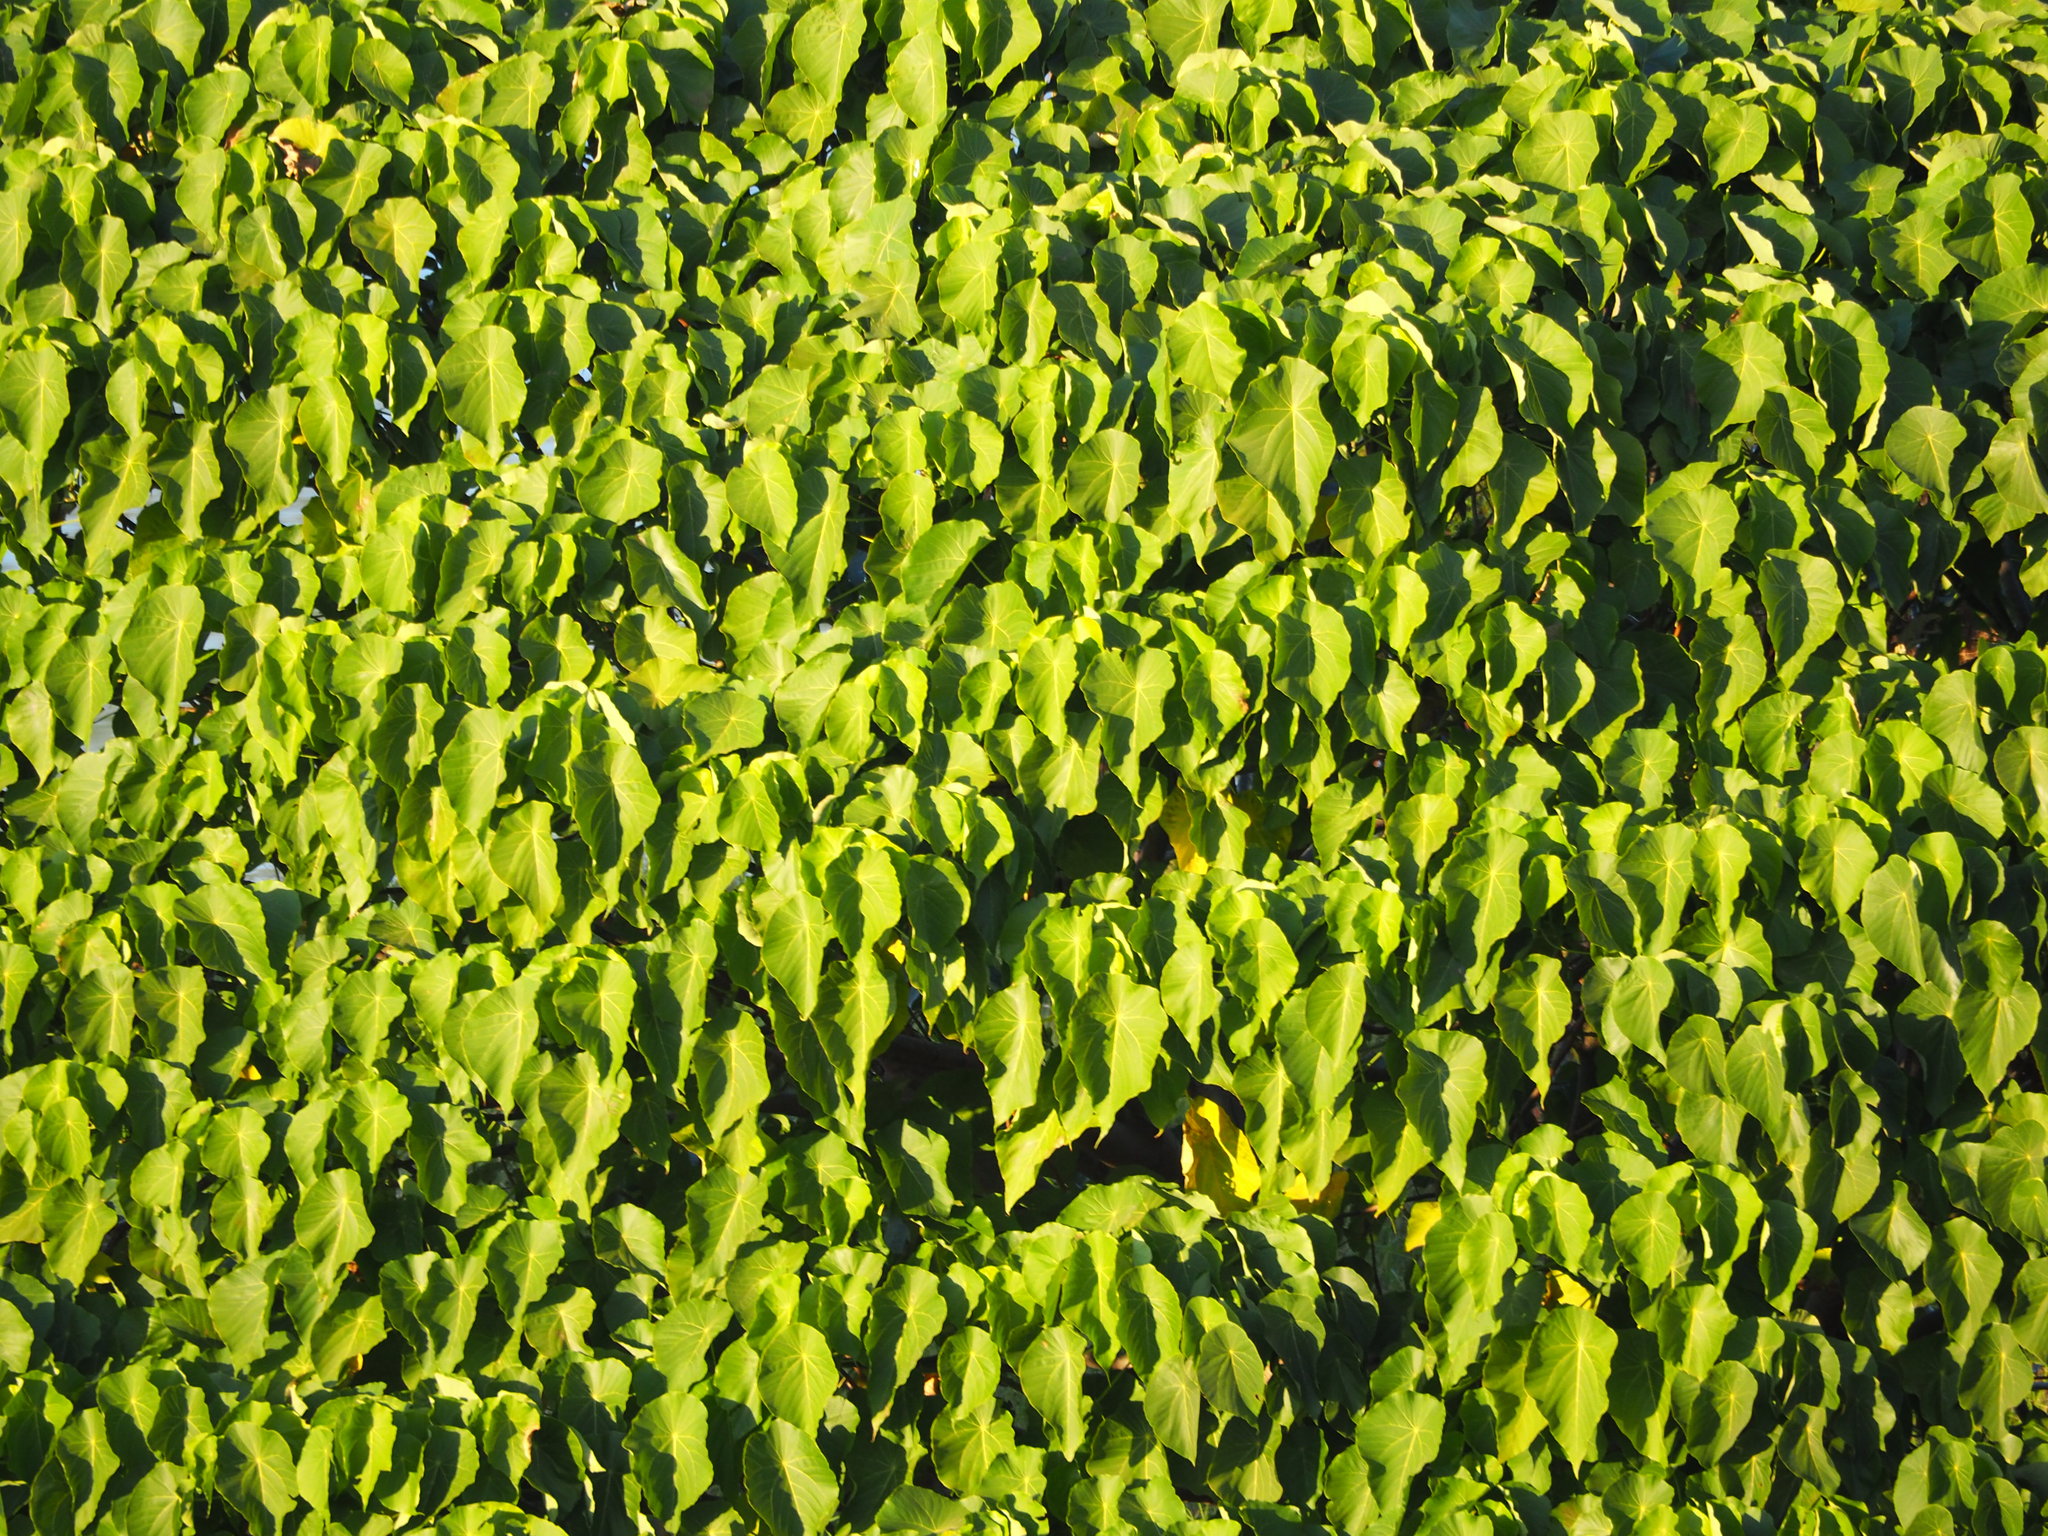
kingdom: Plantae
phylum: Tracheophyta
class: Magnoliopsida
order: Malpighiales
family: Euphorbiaceae
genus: Macaranga
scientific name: Macaranga tanarius
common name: Parasol leaf tree
